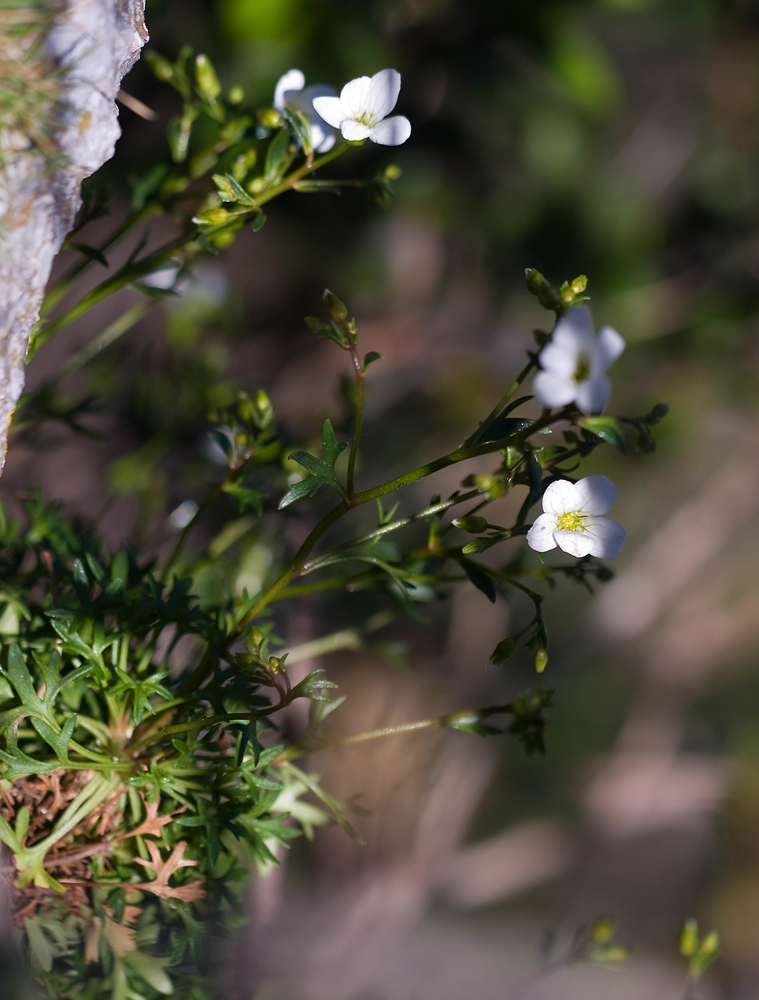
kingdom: Plantae
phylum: Tracheophyta
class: Magnoliopsida
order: Saxifragales
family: Saxifragaceae
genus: Saxifraga
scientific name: Saxifraga fragilis
